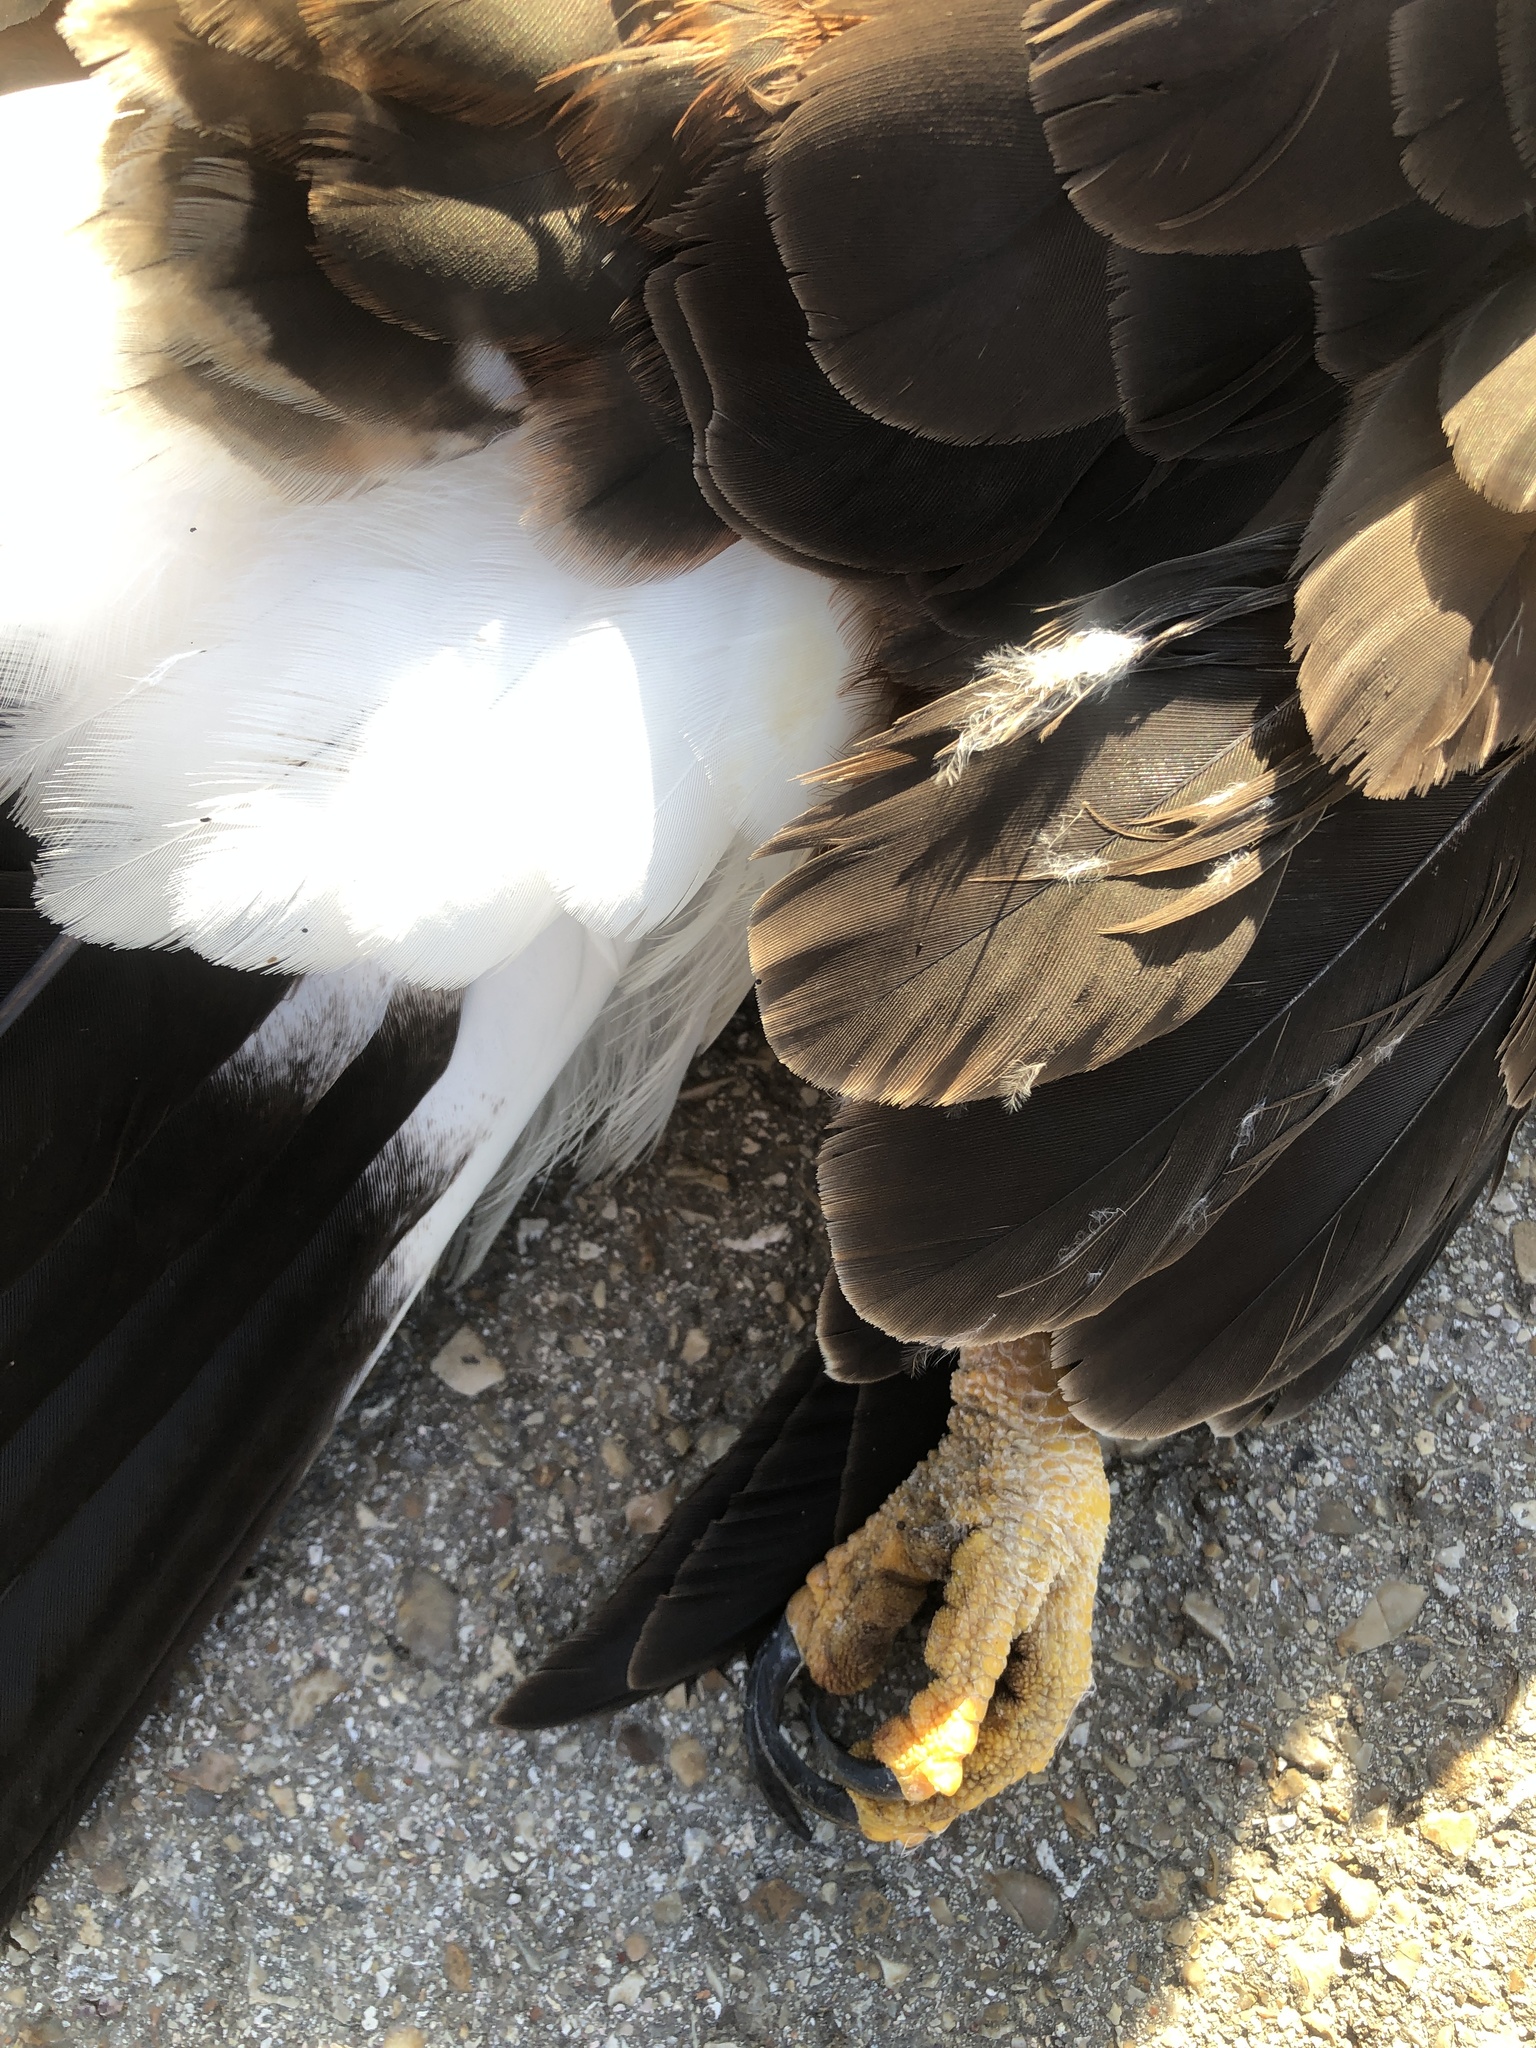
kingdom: Animalia
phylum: Chordata
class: Aves
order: Accipitriformes
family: Accipitridae
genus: Parabuteo
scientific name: Parabuteo unicinctus
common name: Harris's hawk
